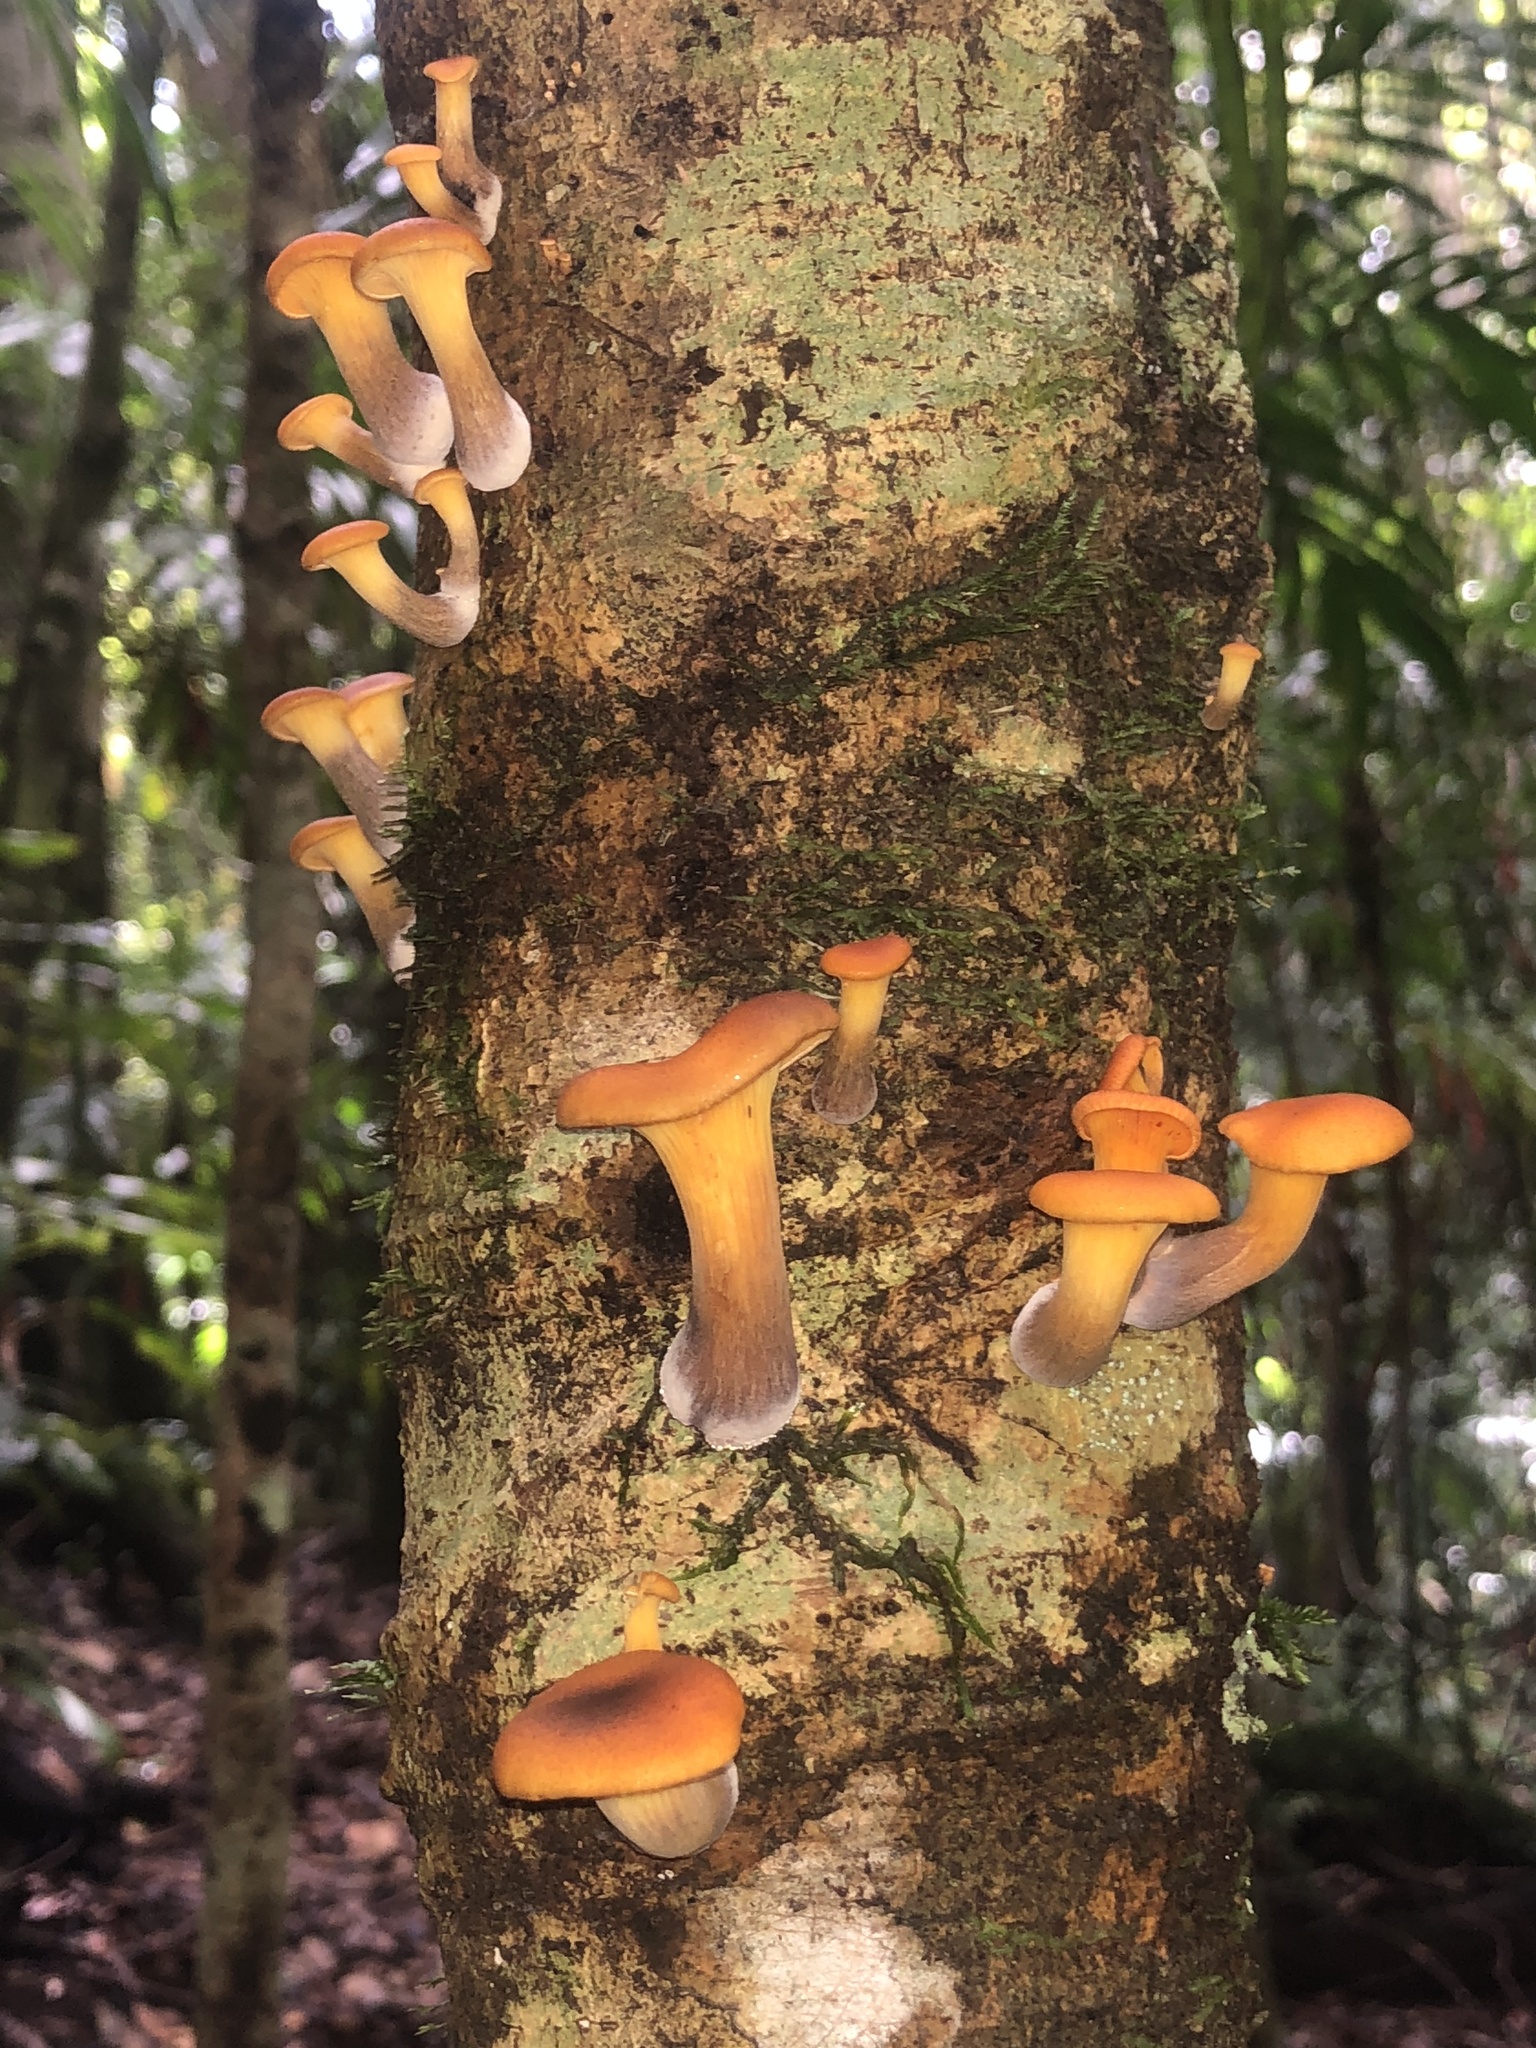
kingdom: Fungi
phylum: Basidiomycota
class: Agaricomycetes
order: Agaricales
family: Omphalotaceae
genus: Omphalotus
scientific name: Omphalotus nidiformis
